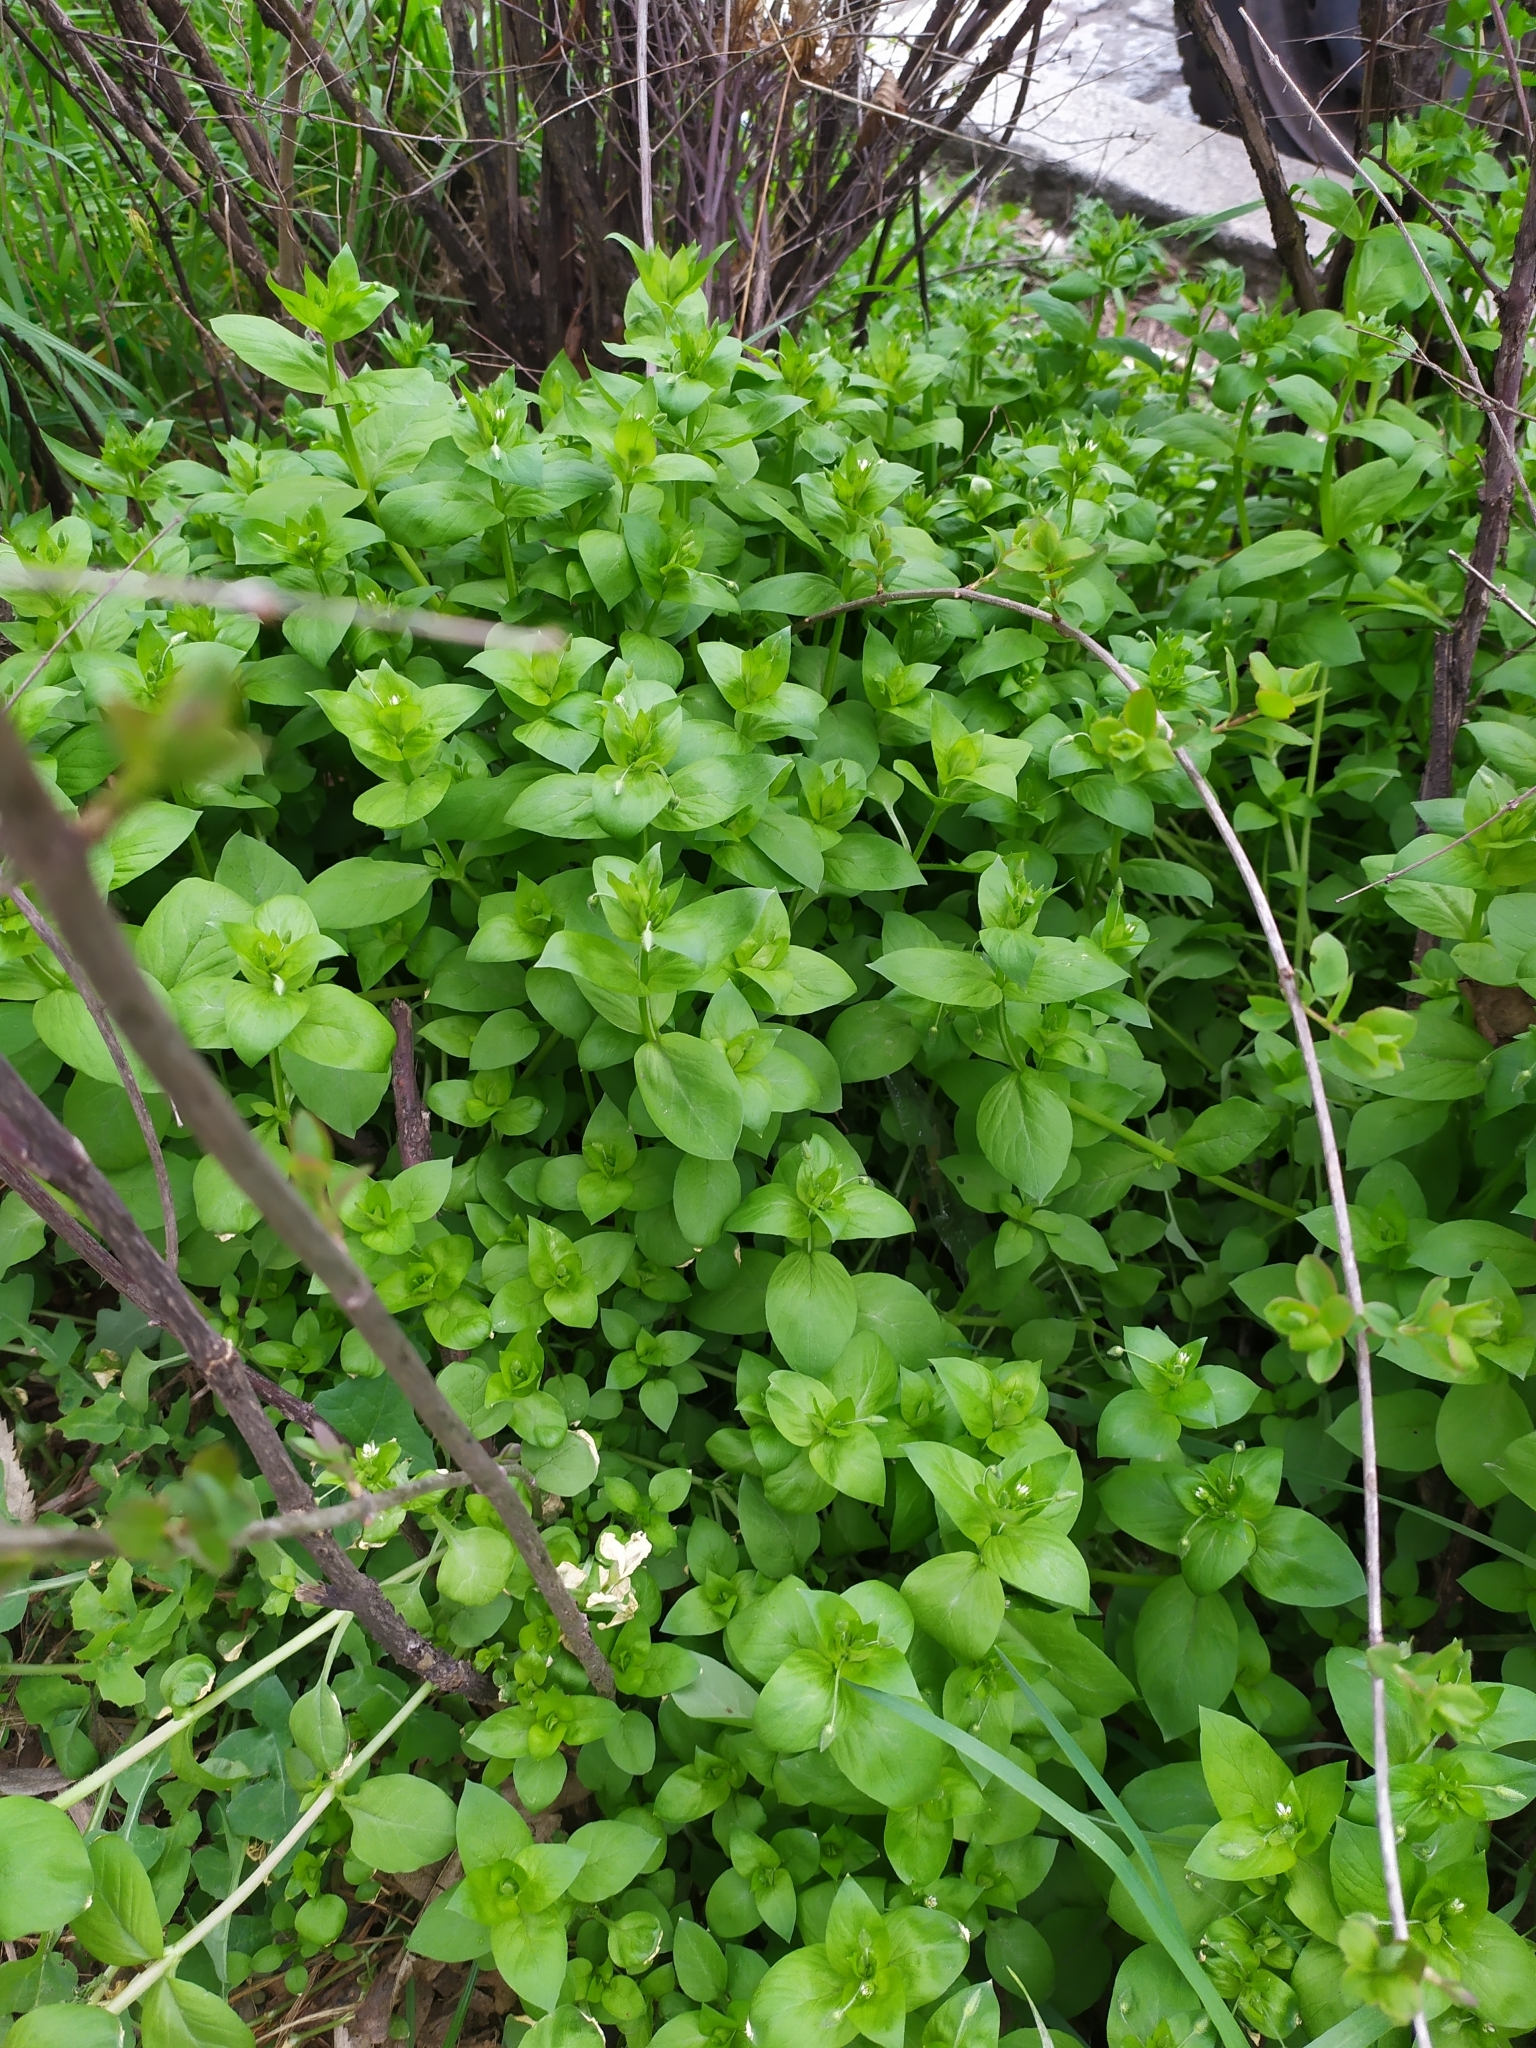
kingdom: Plantae
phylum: Tracheophyta
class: Magnoliopsida
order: Caryophyllales
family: Caryophyllaceae
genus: Stellaria
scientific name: Stellaria ruderalis
